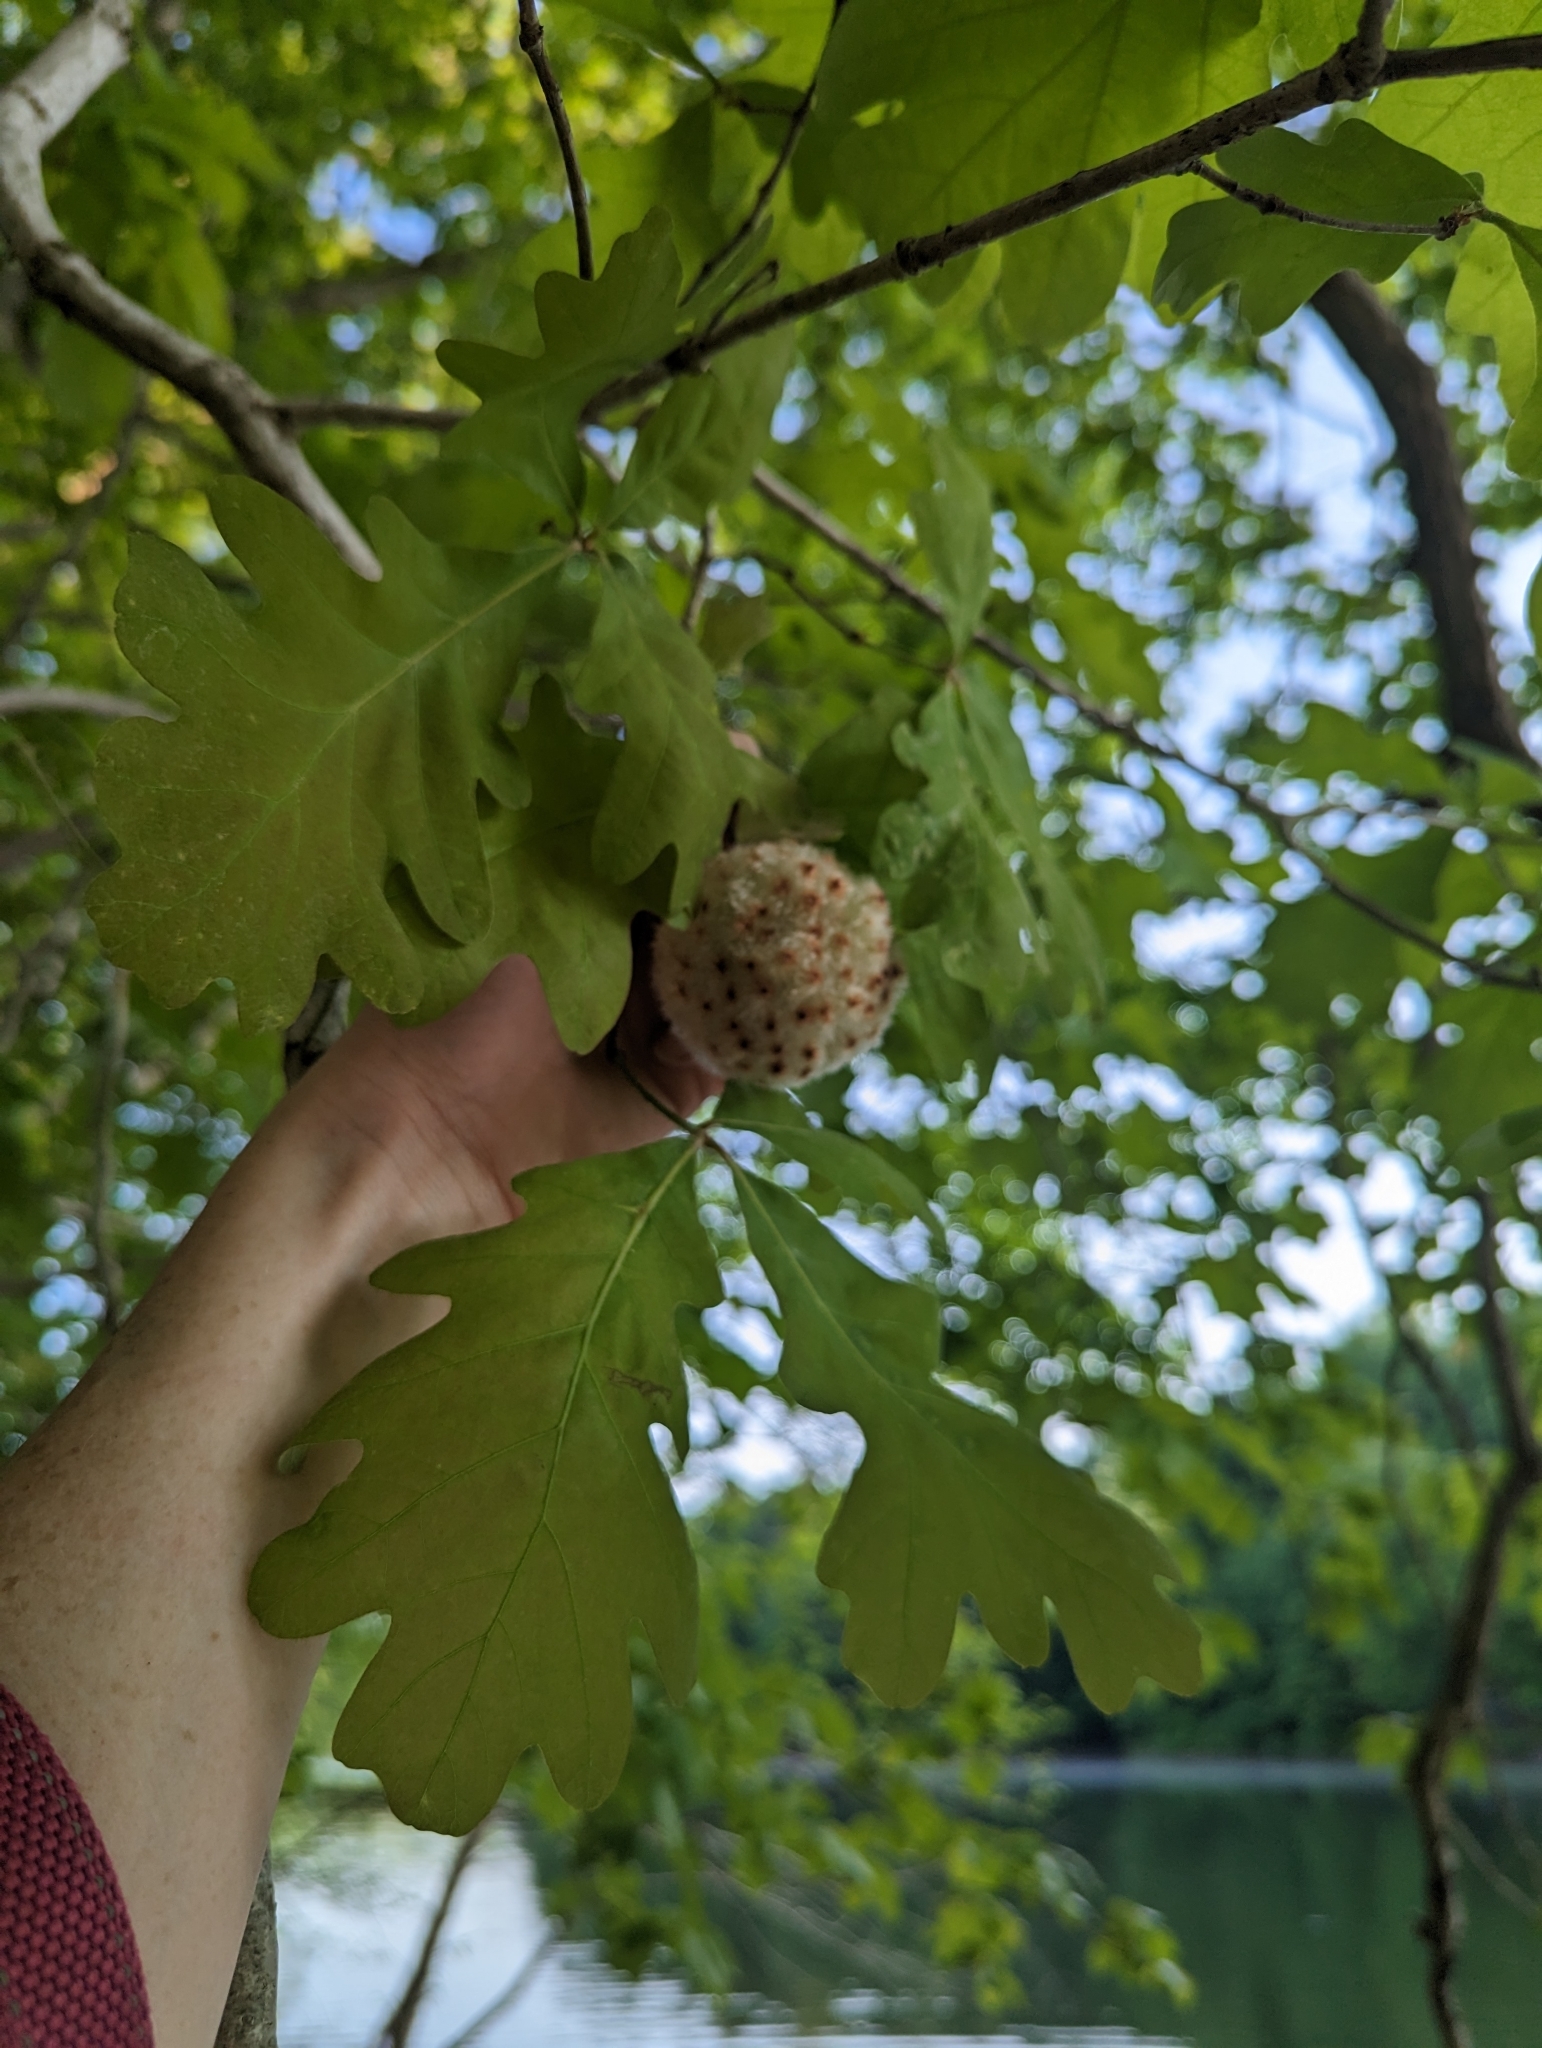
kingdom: Animalia
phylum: Arthropoda
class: Insecta
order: Hymenoptera
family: Cynipidae
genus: Callirhytis
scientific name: Callirhytis
